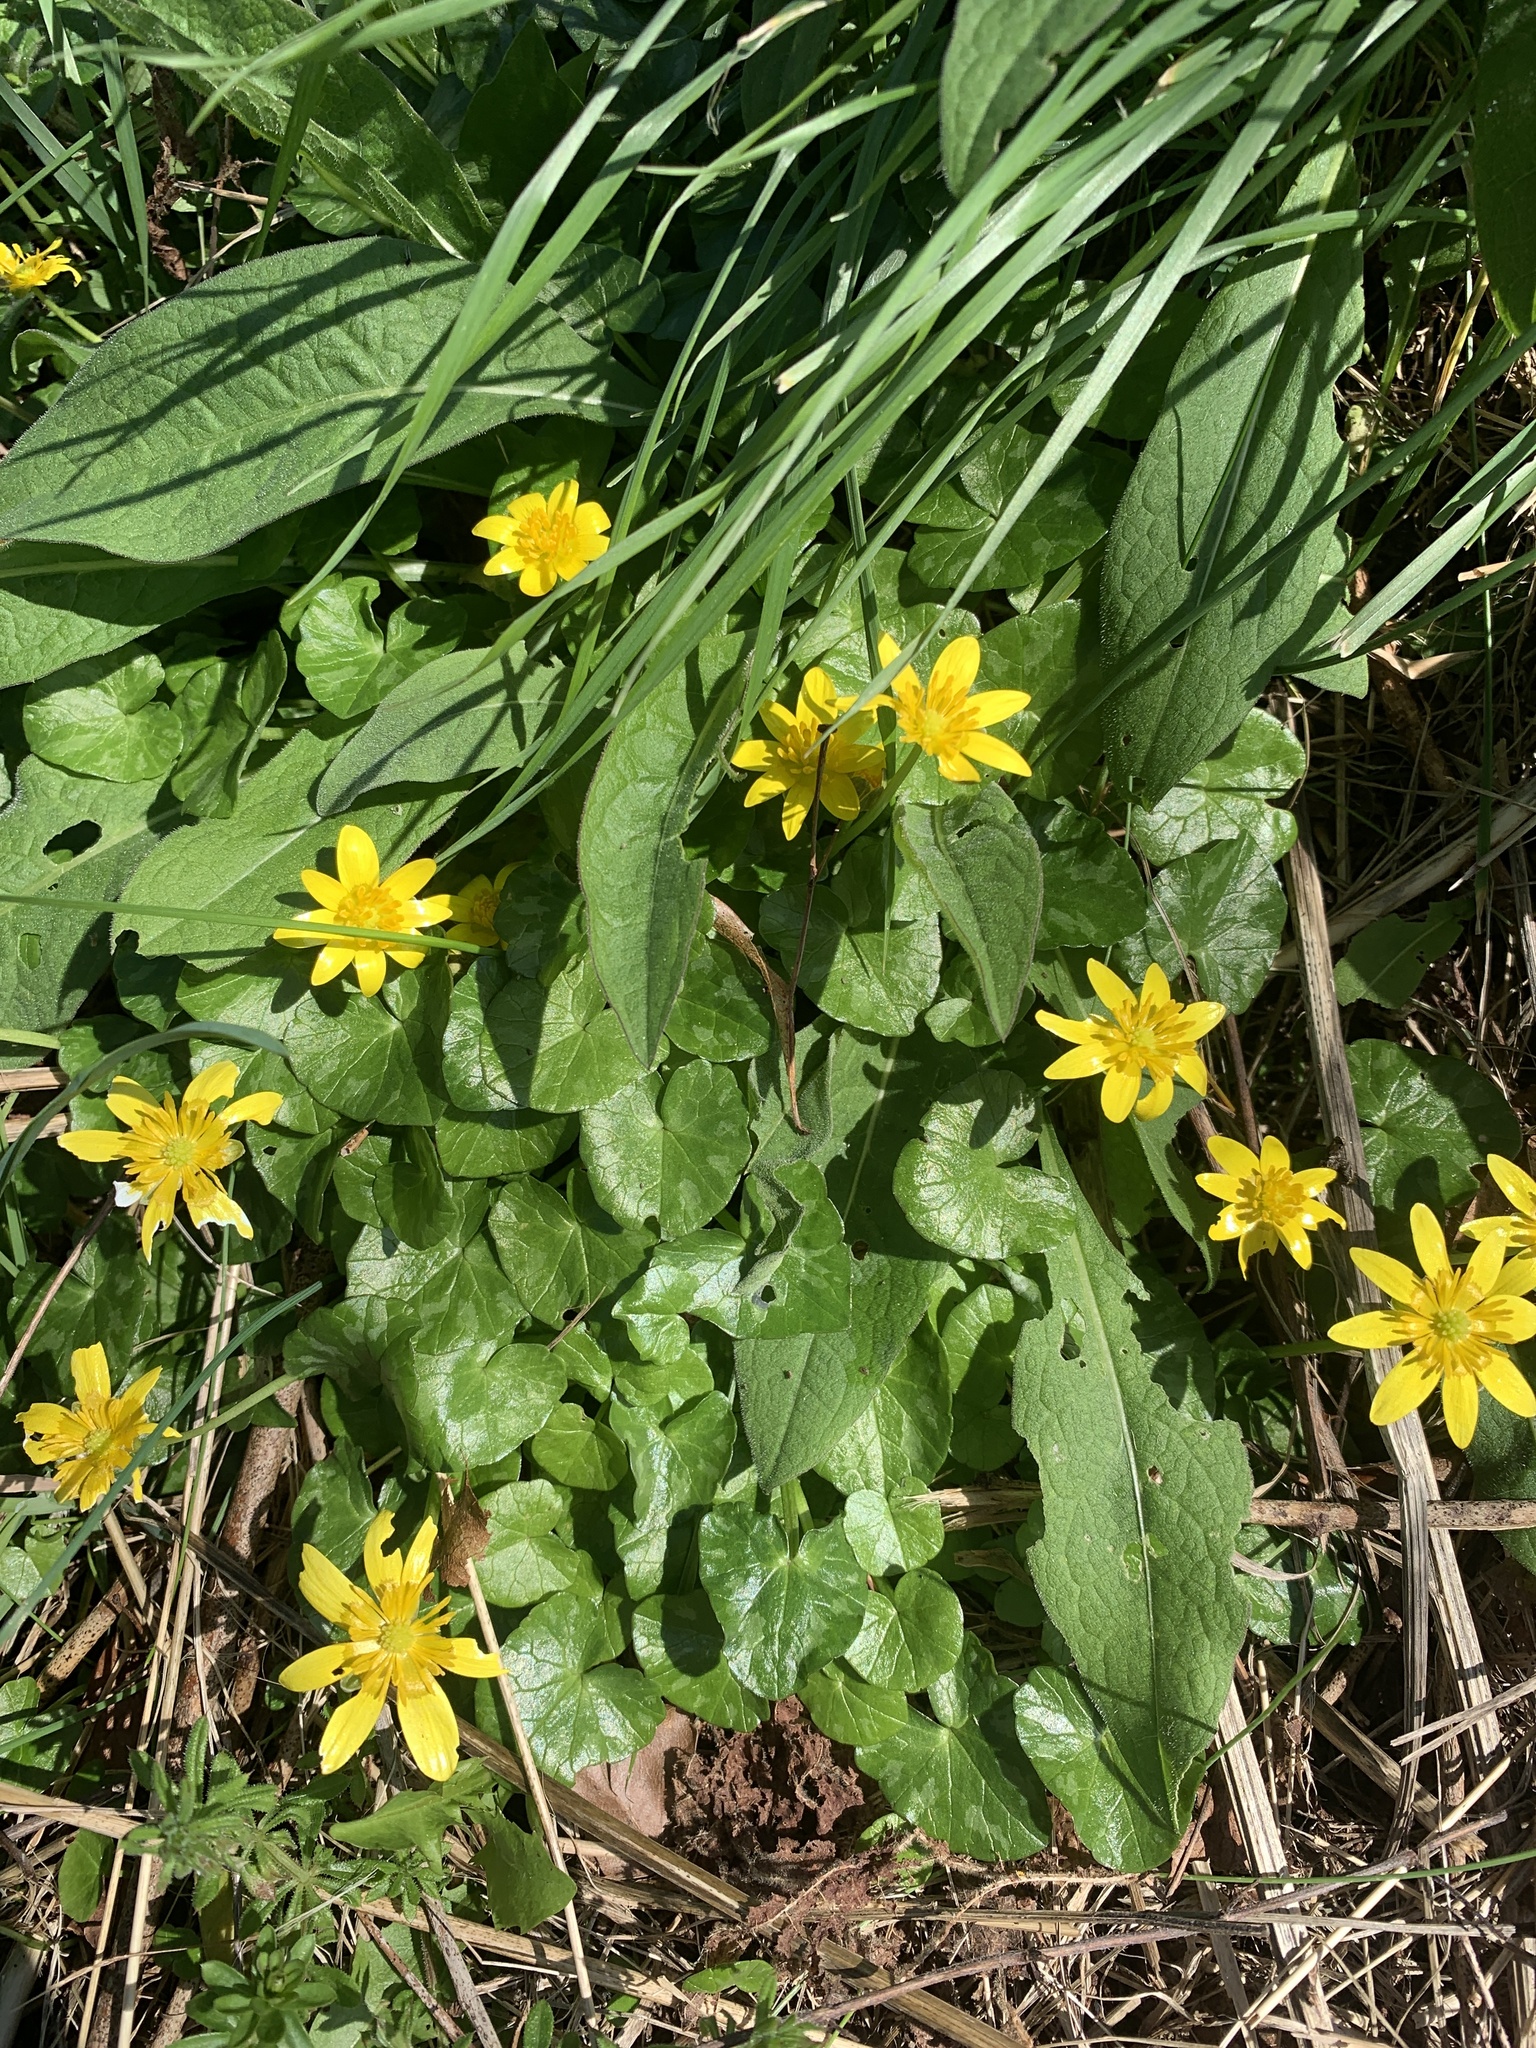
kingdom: Plantae
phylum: Tracheophyta
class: Magnoliopsida
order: Ranunculales
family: Ranunculaceae
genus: Ficaria
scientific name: Ficaria verna
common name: Lesser celandine
